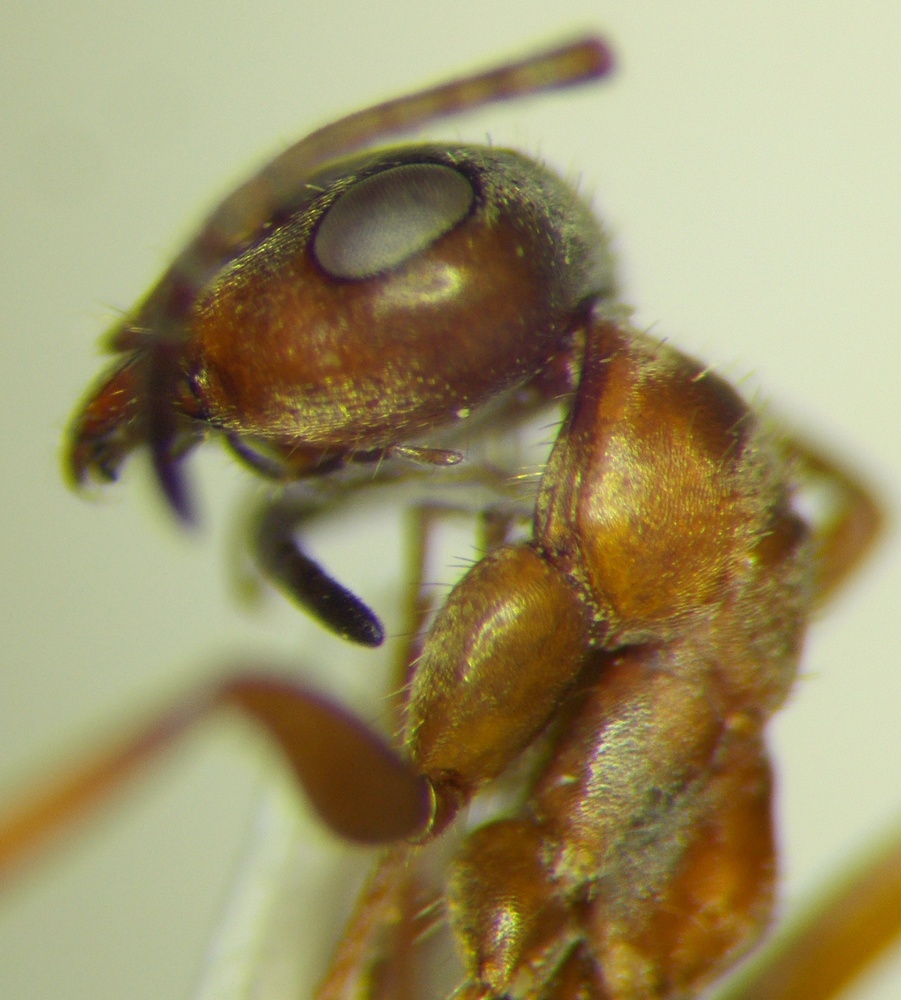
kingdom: Animalia
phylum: Arthropoda
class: Insecta
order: Hymenoptera
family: Formicidae
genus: Formica
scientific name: Formica cinerea
